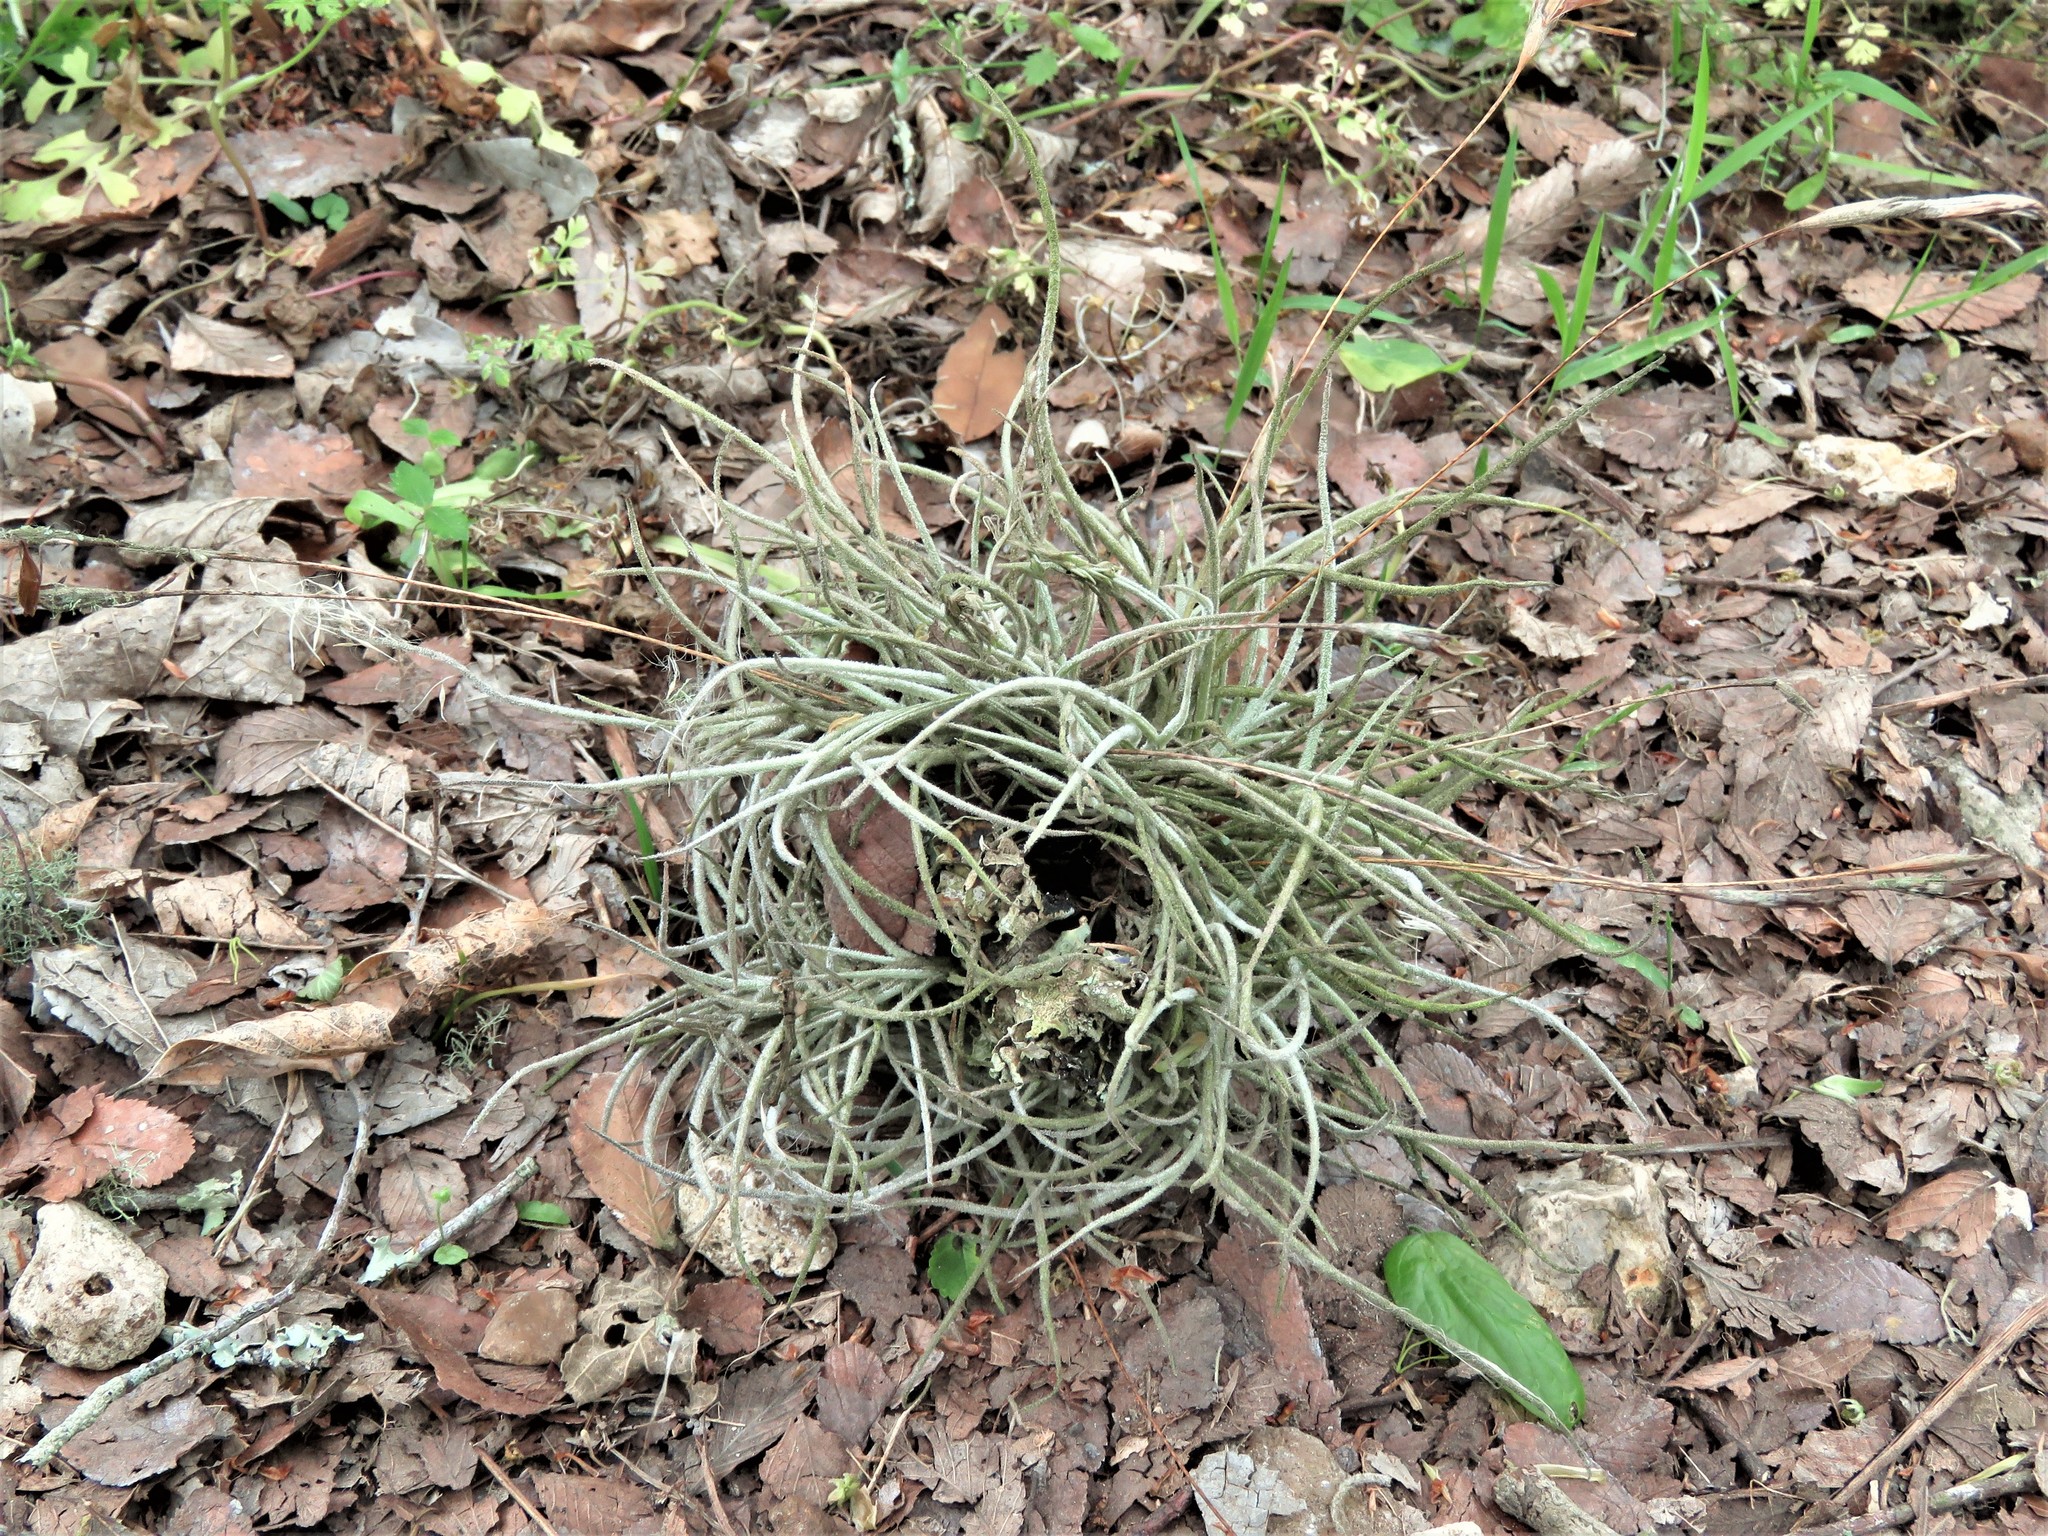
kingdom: Plantae
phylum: Tracheophyta
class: Liliopsida
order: Poales
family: Bromeliaceae
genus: Tillandsia
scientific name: Tillandsia recurvata
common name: Small ballmoss
